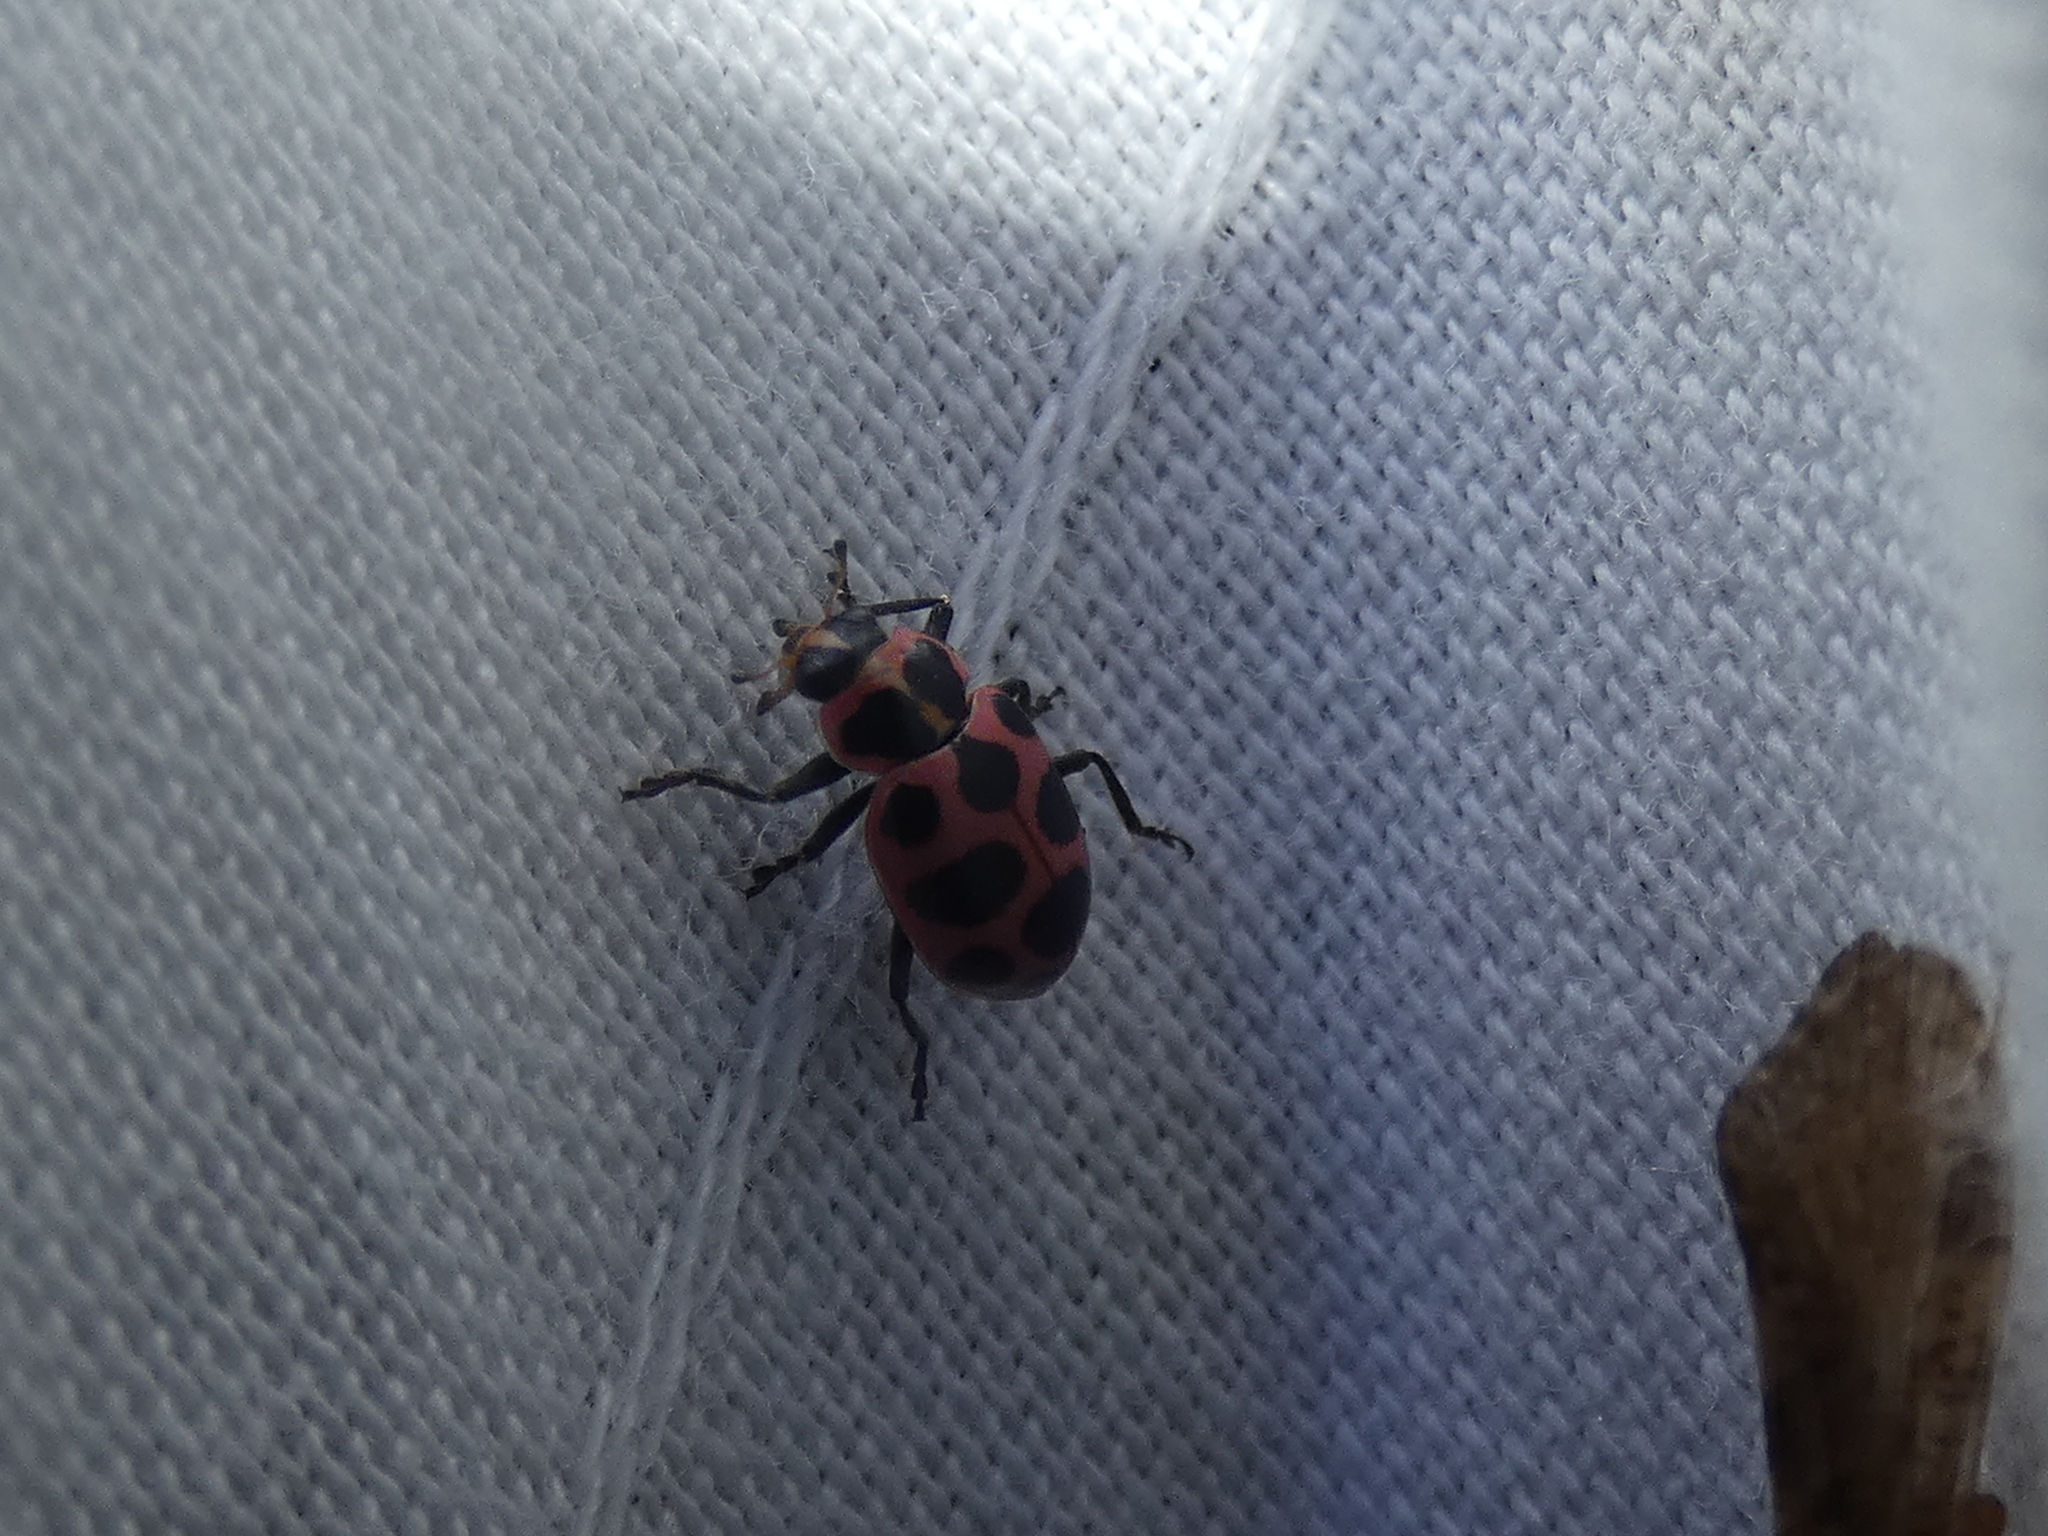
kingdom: Animalia
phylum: Arthropoda
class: Insecta
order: Coleoptera
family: Coccinellidae
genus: Coleomegilla
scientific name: Coleomegilla maculata
